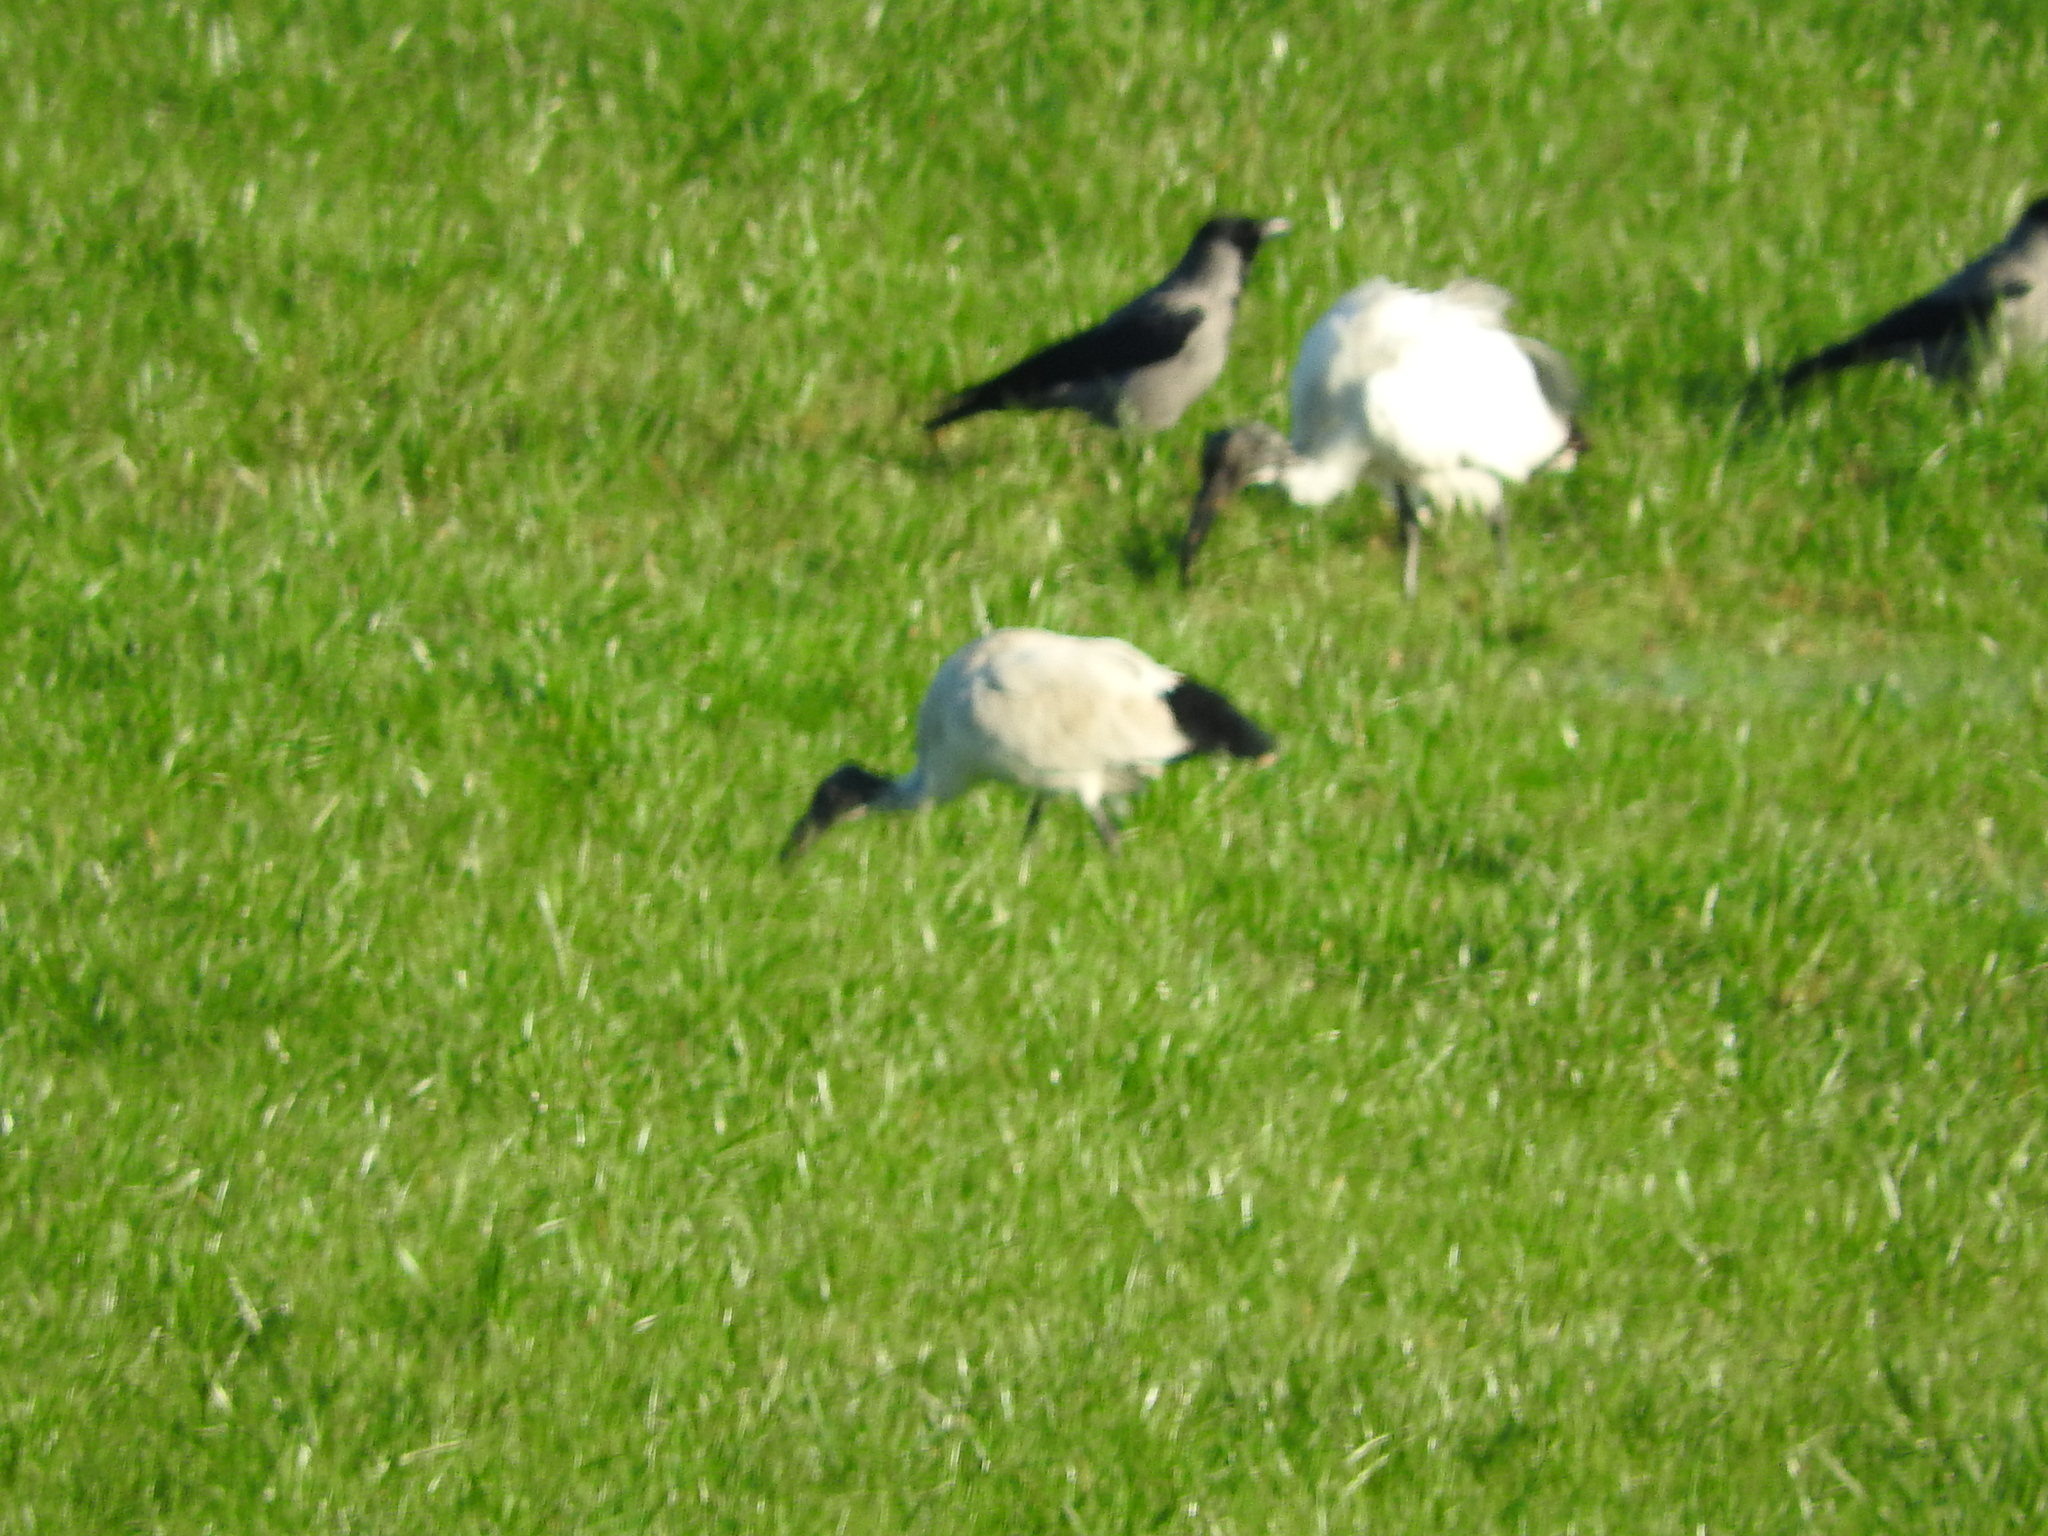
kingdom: Animalia
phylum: Chordata
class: Aves
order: Pelecaniformes
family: Threskiornithidae
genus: Threskiornis
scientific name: Threskiornis aethiopicus
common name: Sacred ibis
